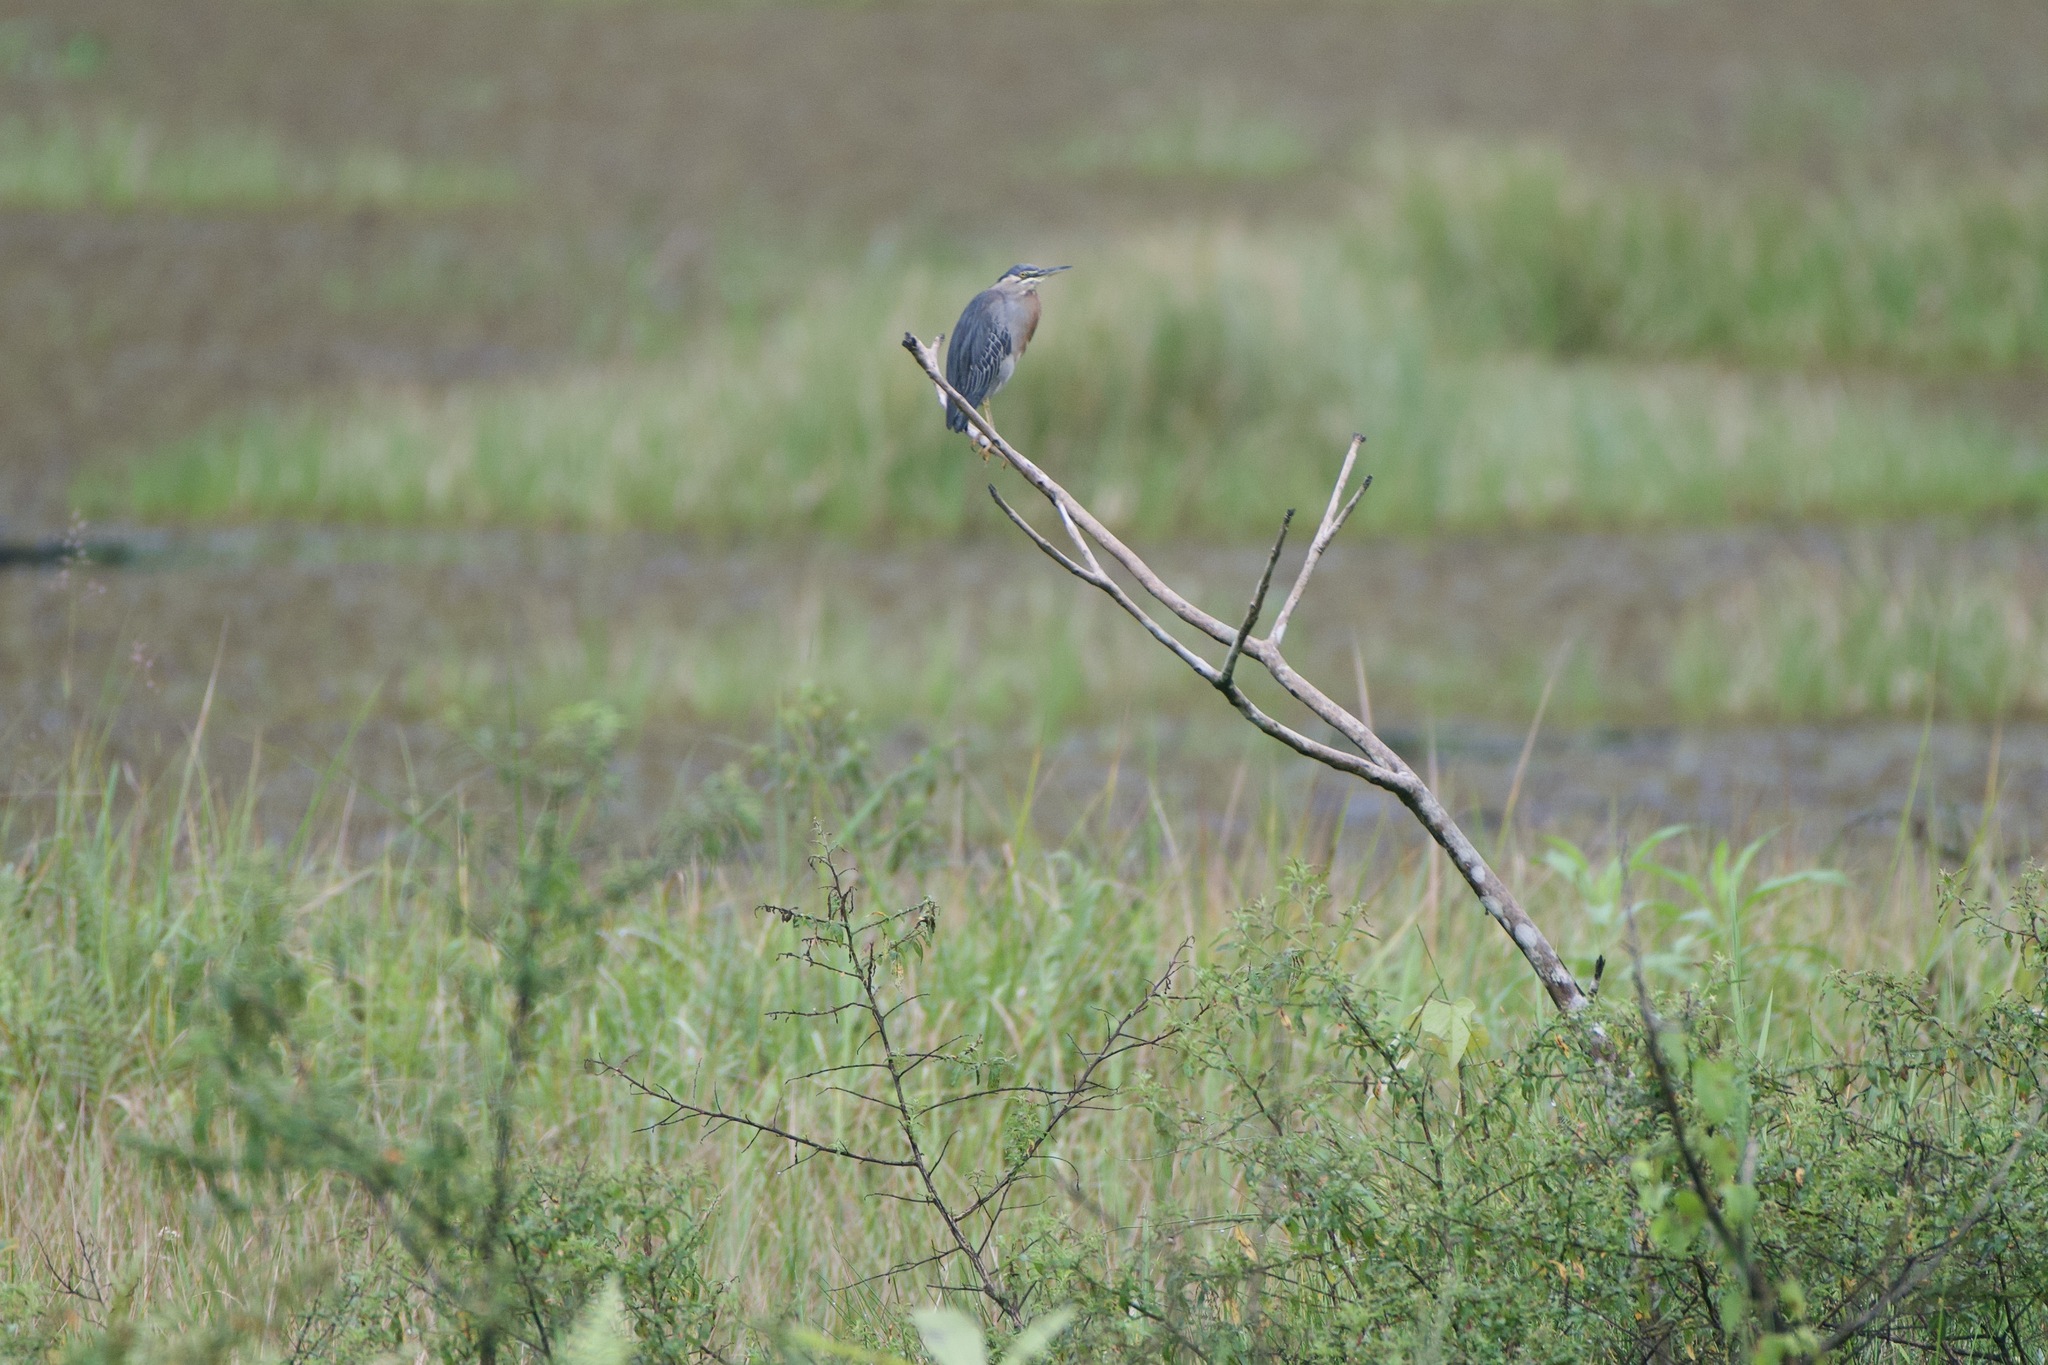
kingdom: Animalia
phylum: Chordata
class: Aves
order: Pelecaniformes
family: Ardeidae
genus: Butorides
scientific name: Butorides striata
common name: Striated heron
